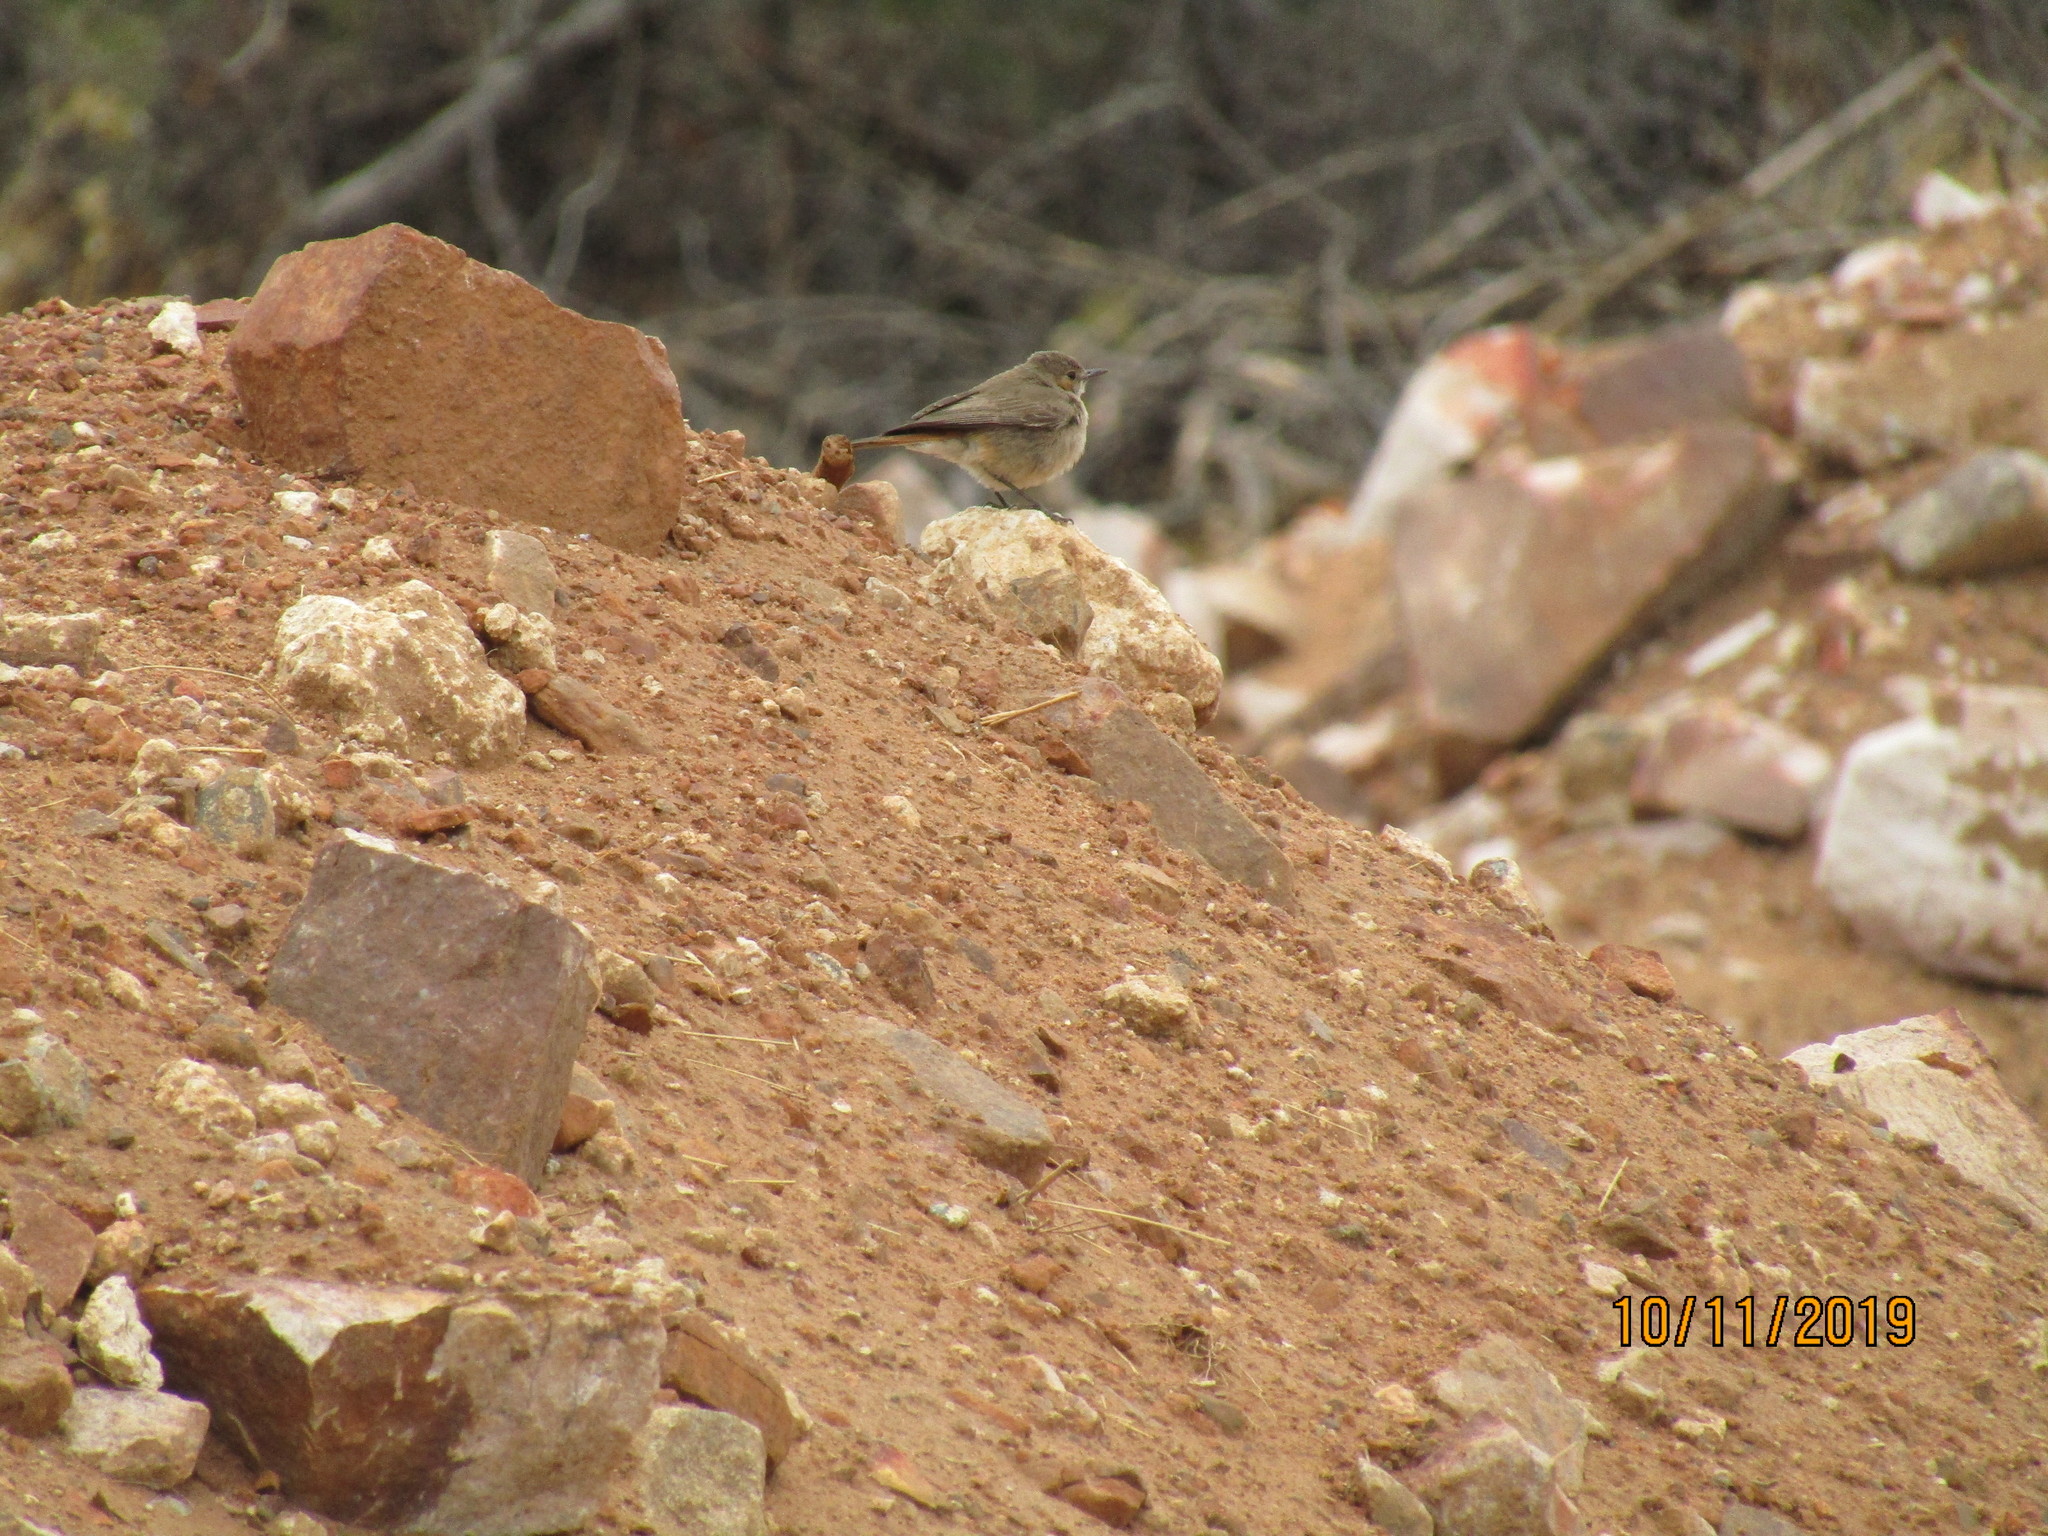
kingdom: Animalia
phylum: Chordata
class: Aves
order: Passeriformes
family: Muscicapidae
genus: Oenanthe
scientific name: Oenanthe familiaris
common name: Familiar chat
